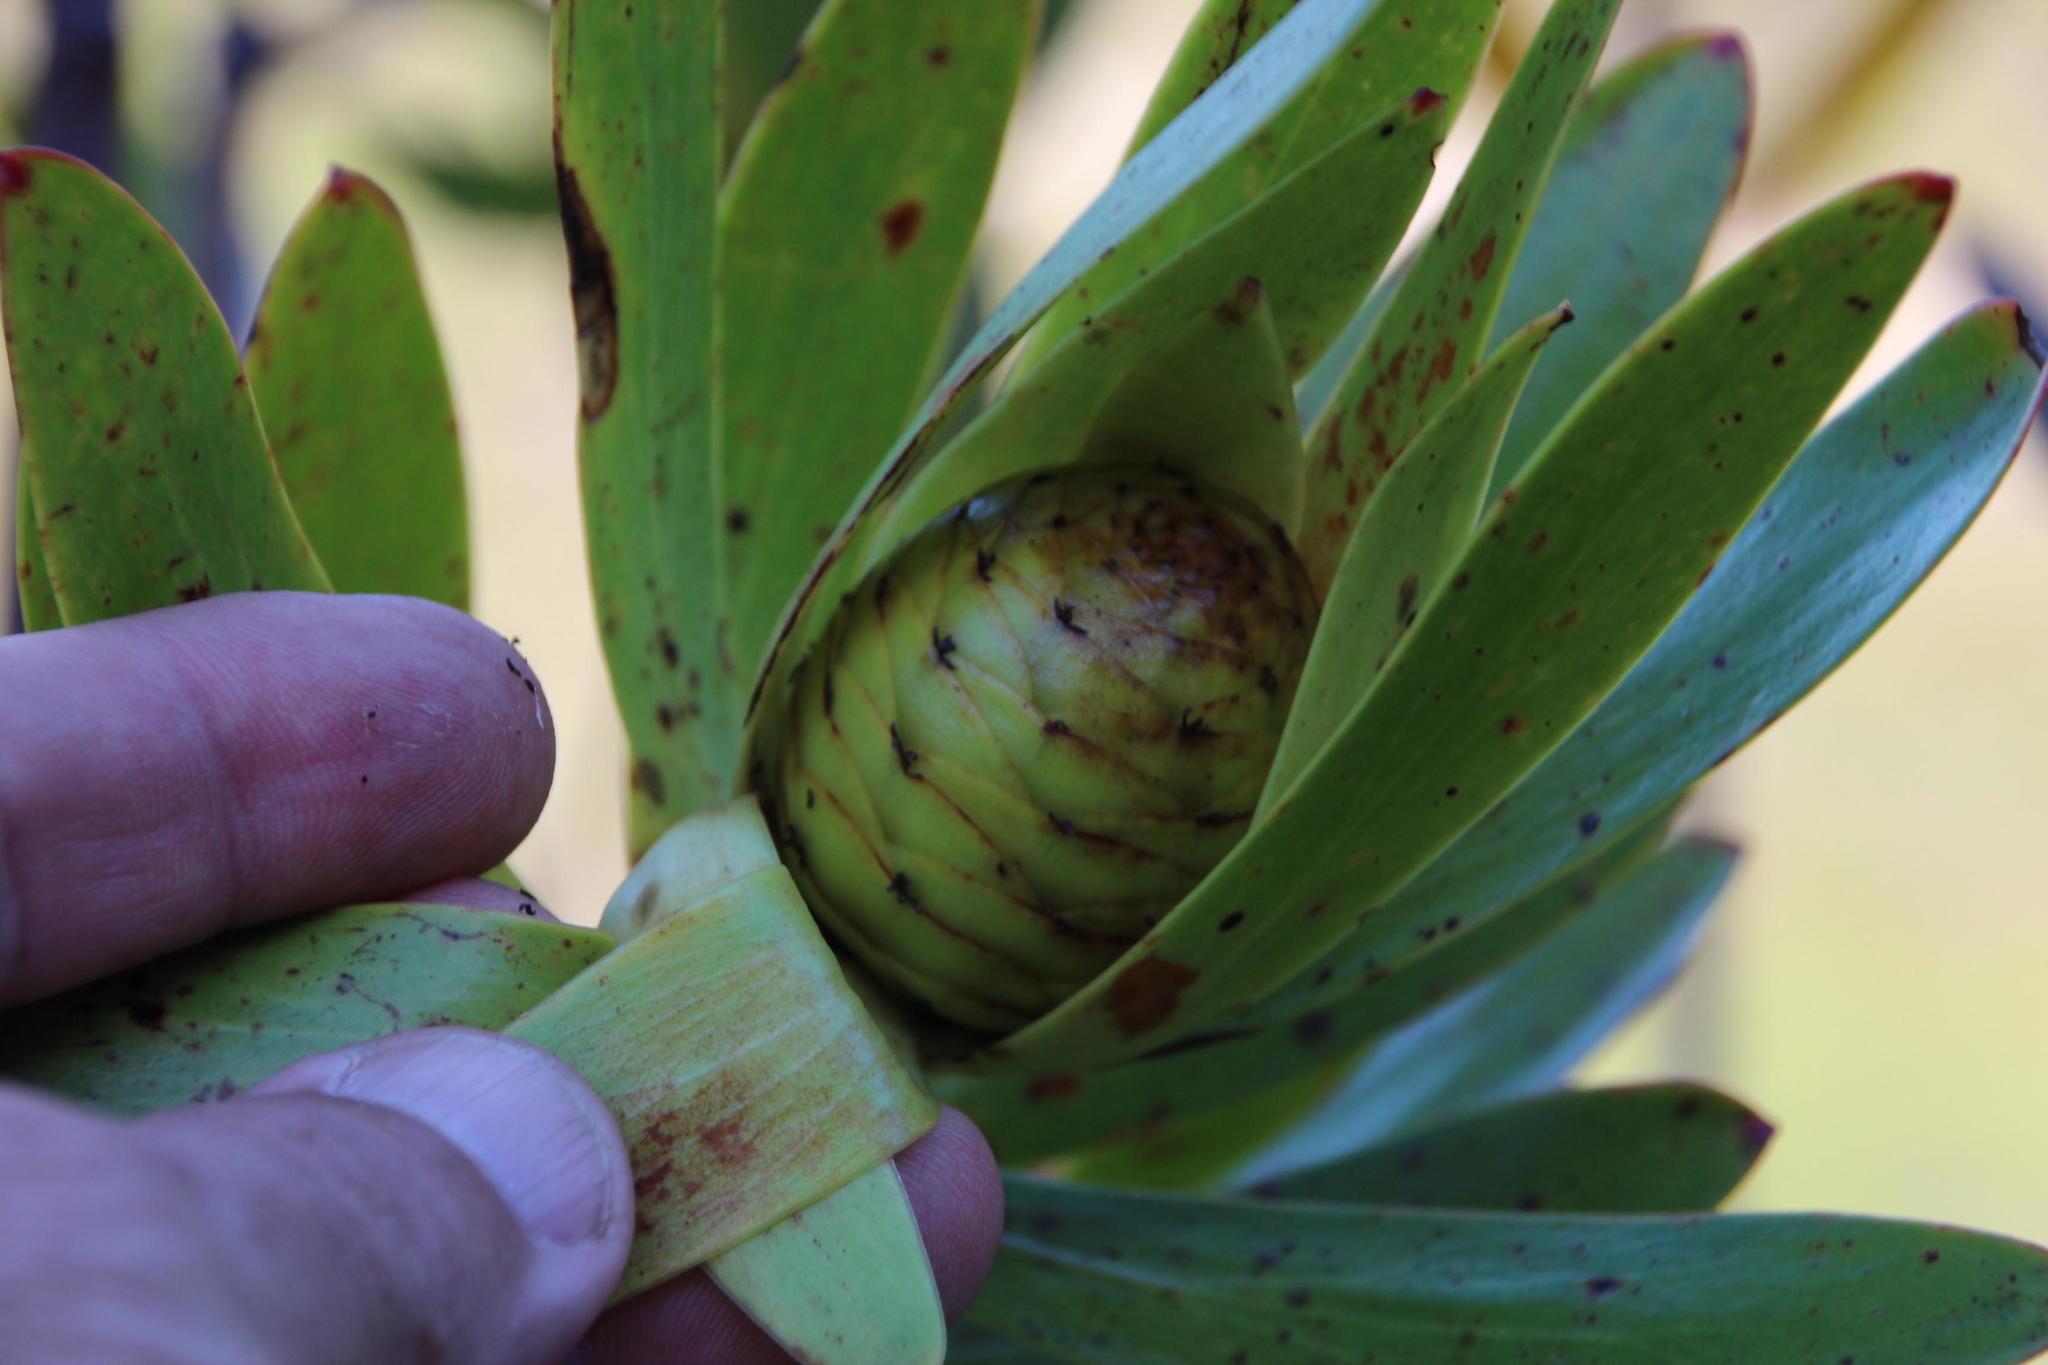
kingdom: Plantae
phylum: Tracheophyta
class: Magnoliopsida
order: Proteales
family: Proteaceae
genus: Leucadendron
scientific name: Leucadendron gandogeri
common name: Broad-leaf conebush
